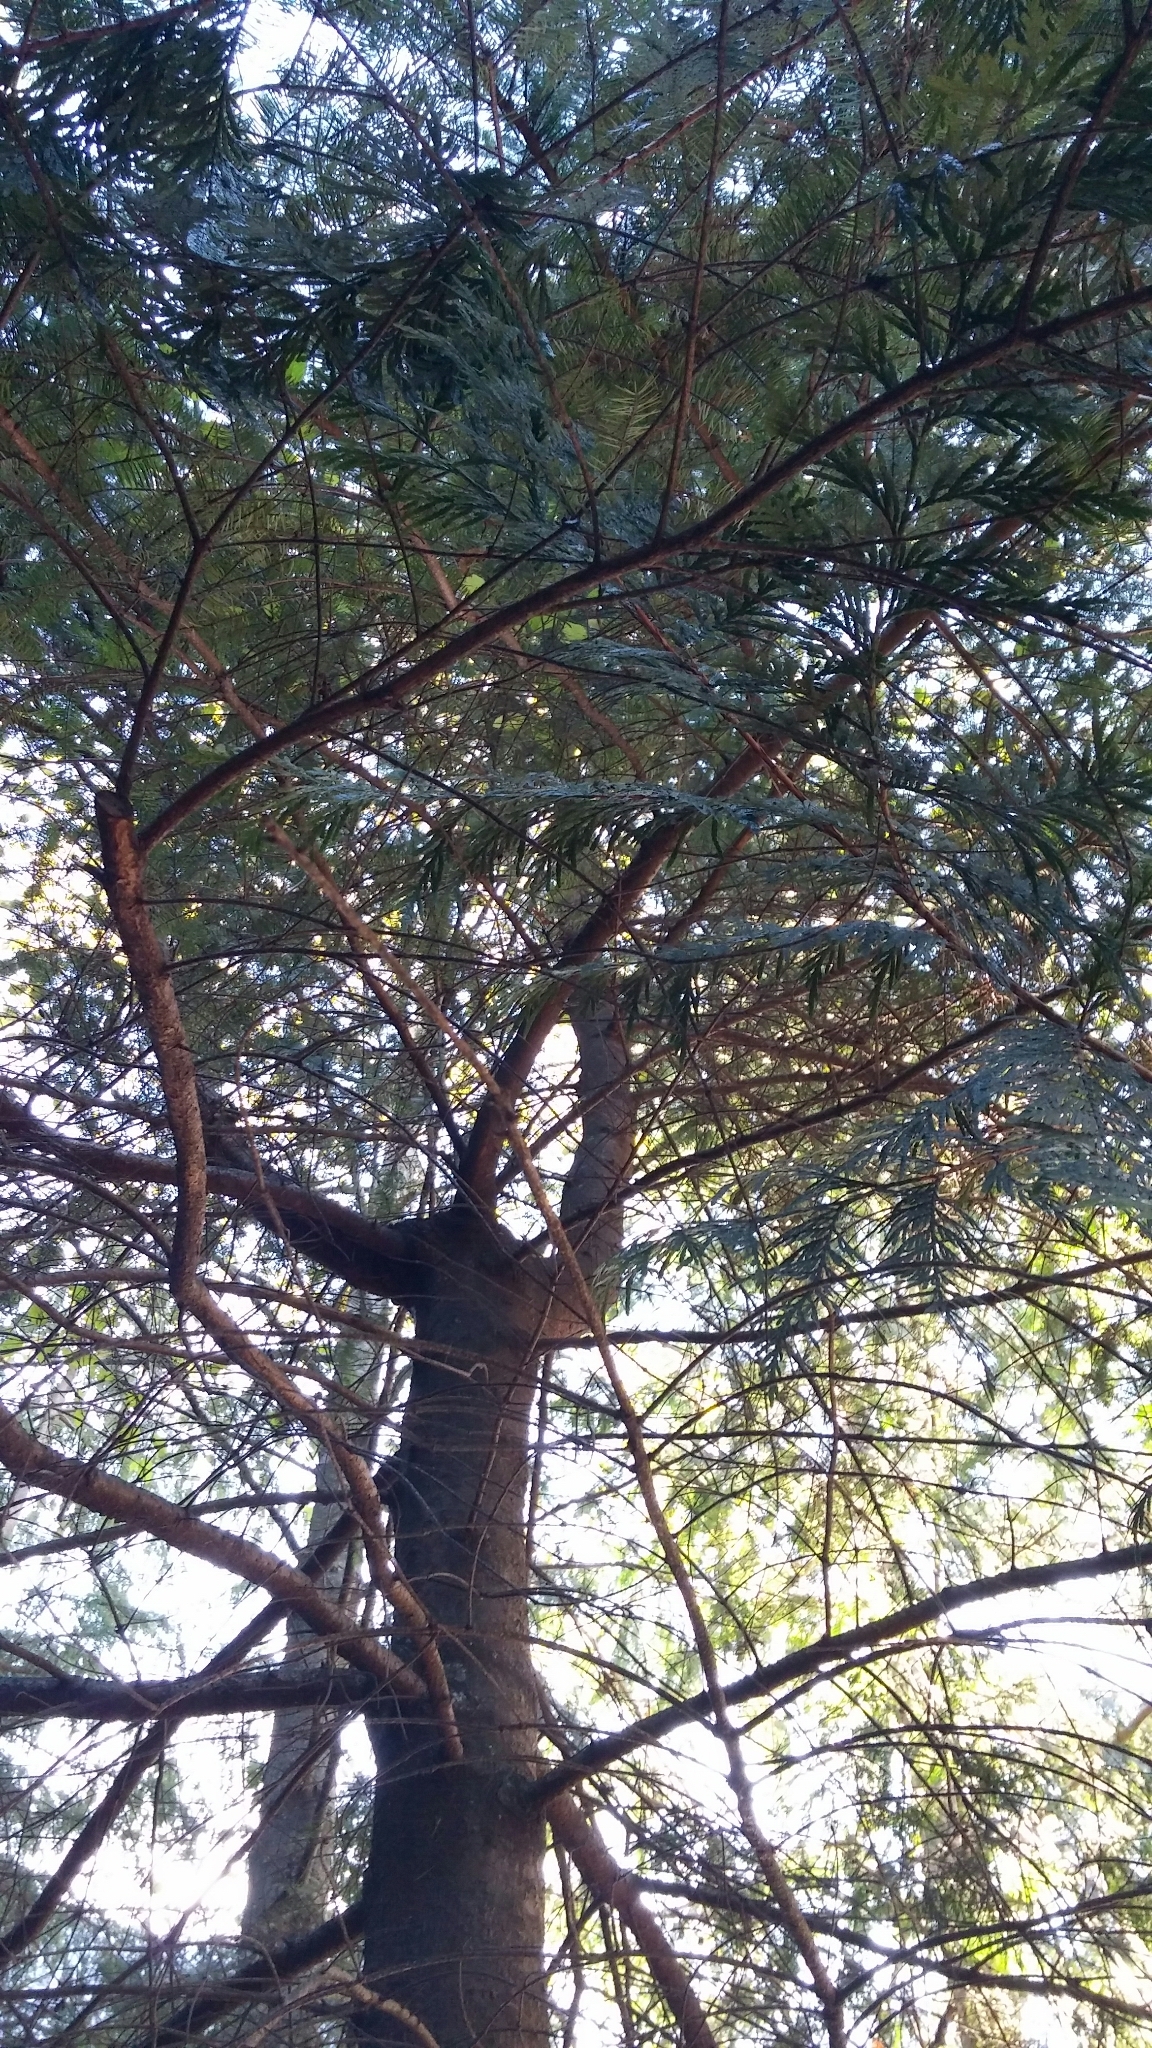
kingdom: Plantae
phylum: Tracheophyta
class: Pinopsida
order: Pinales
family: Pinaceae
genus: Pseudotsuga
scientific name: Pseudotsuga menziesii
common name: Douglas fir
